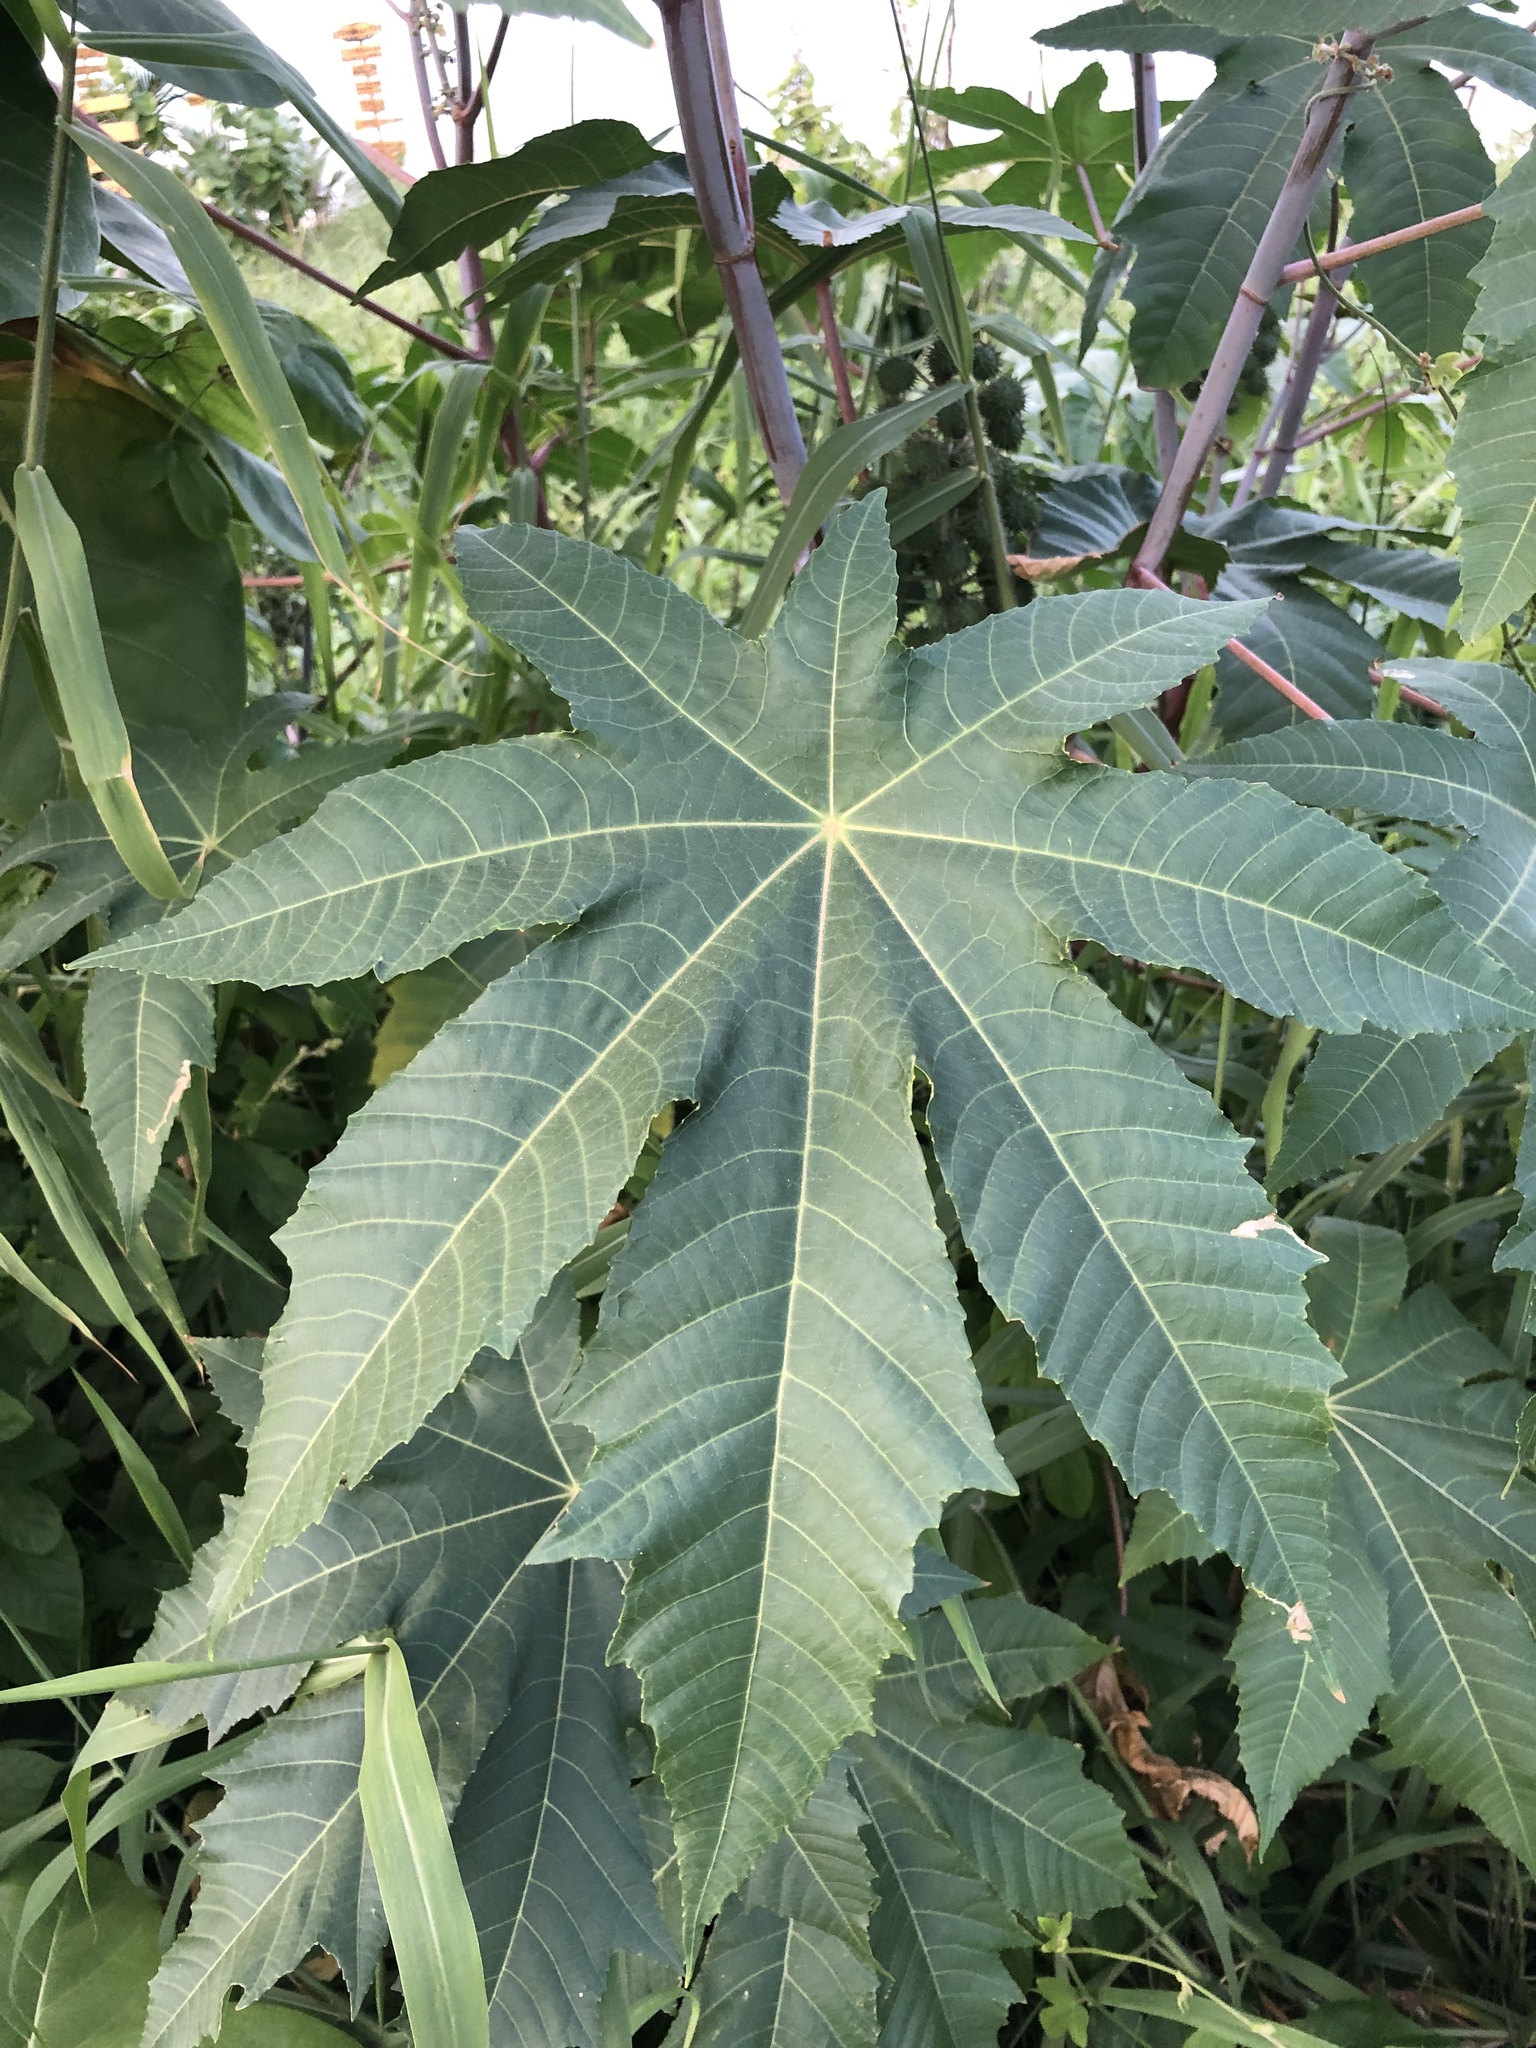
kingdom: Plantae
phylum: Tracheophyta
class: Magnoliopsida
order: Malpighiales
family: Euphorbiaceae
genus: Ricinus
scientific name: Ricinus communis
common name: Castor-oil-plant
